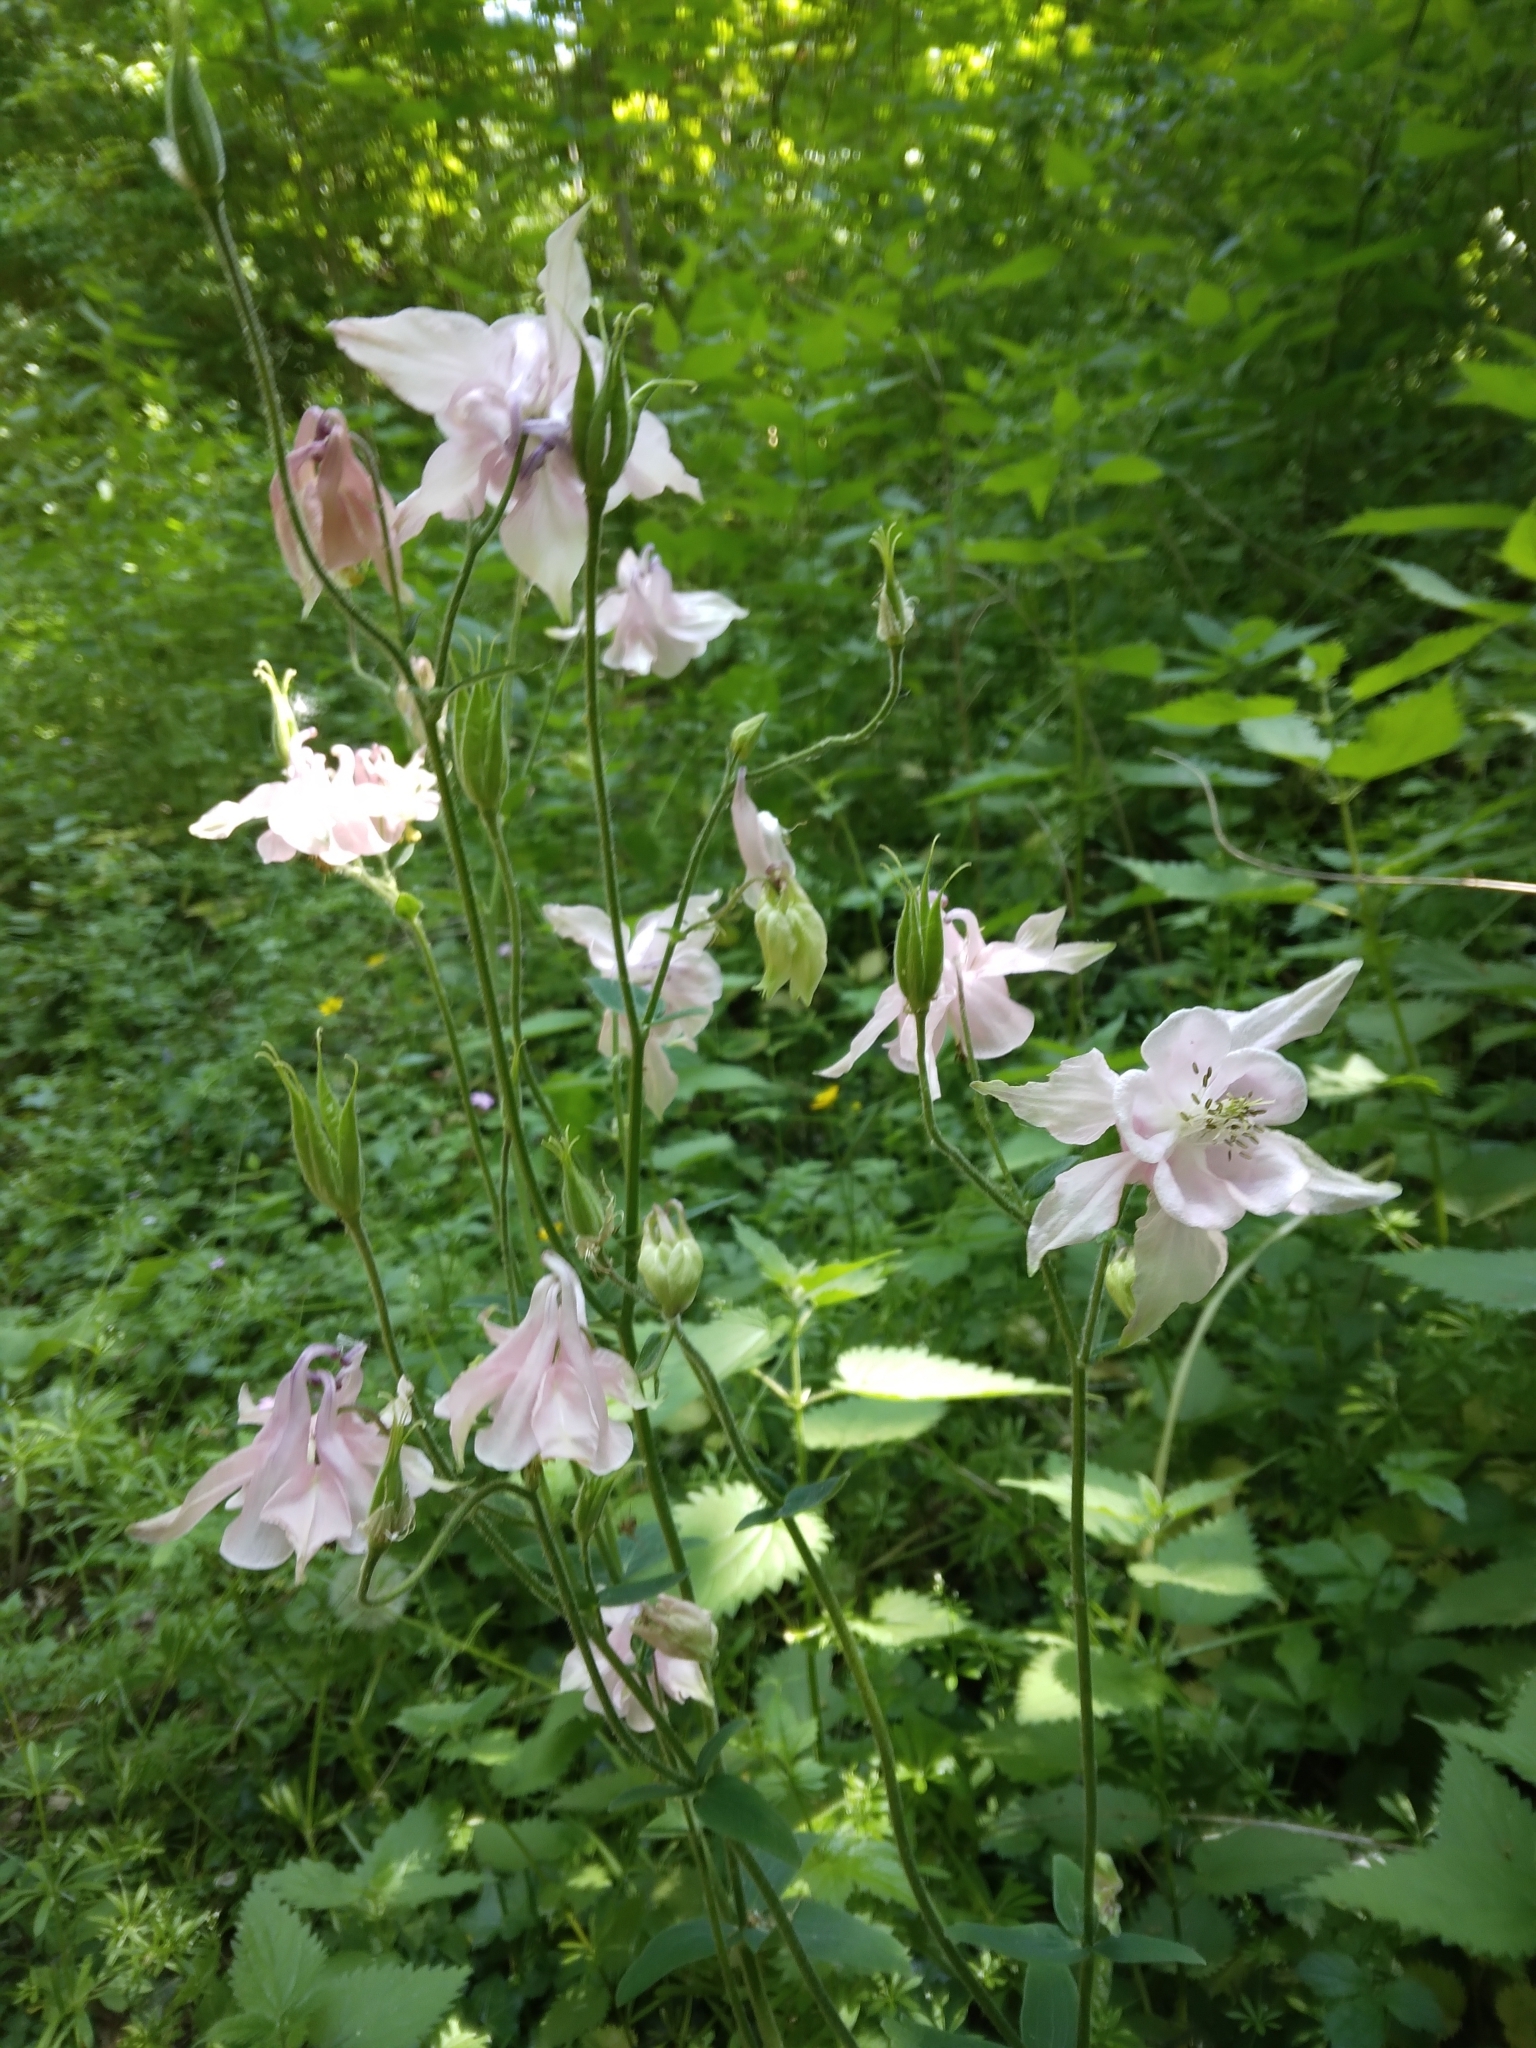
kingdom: Plantae
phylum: Tracheophyta
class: Magnoliopsida
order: Ranunculales
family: Ranunculaceae
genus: Aquilegia
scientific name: Aquilegia vulgaris
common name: Columbine
